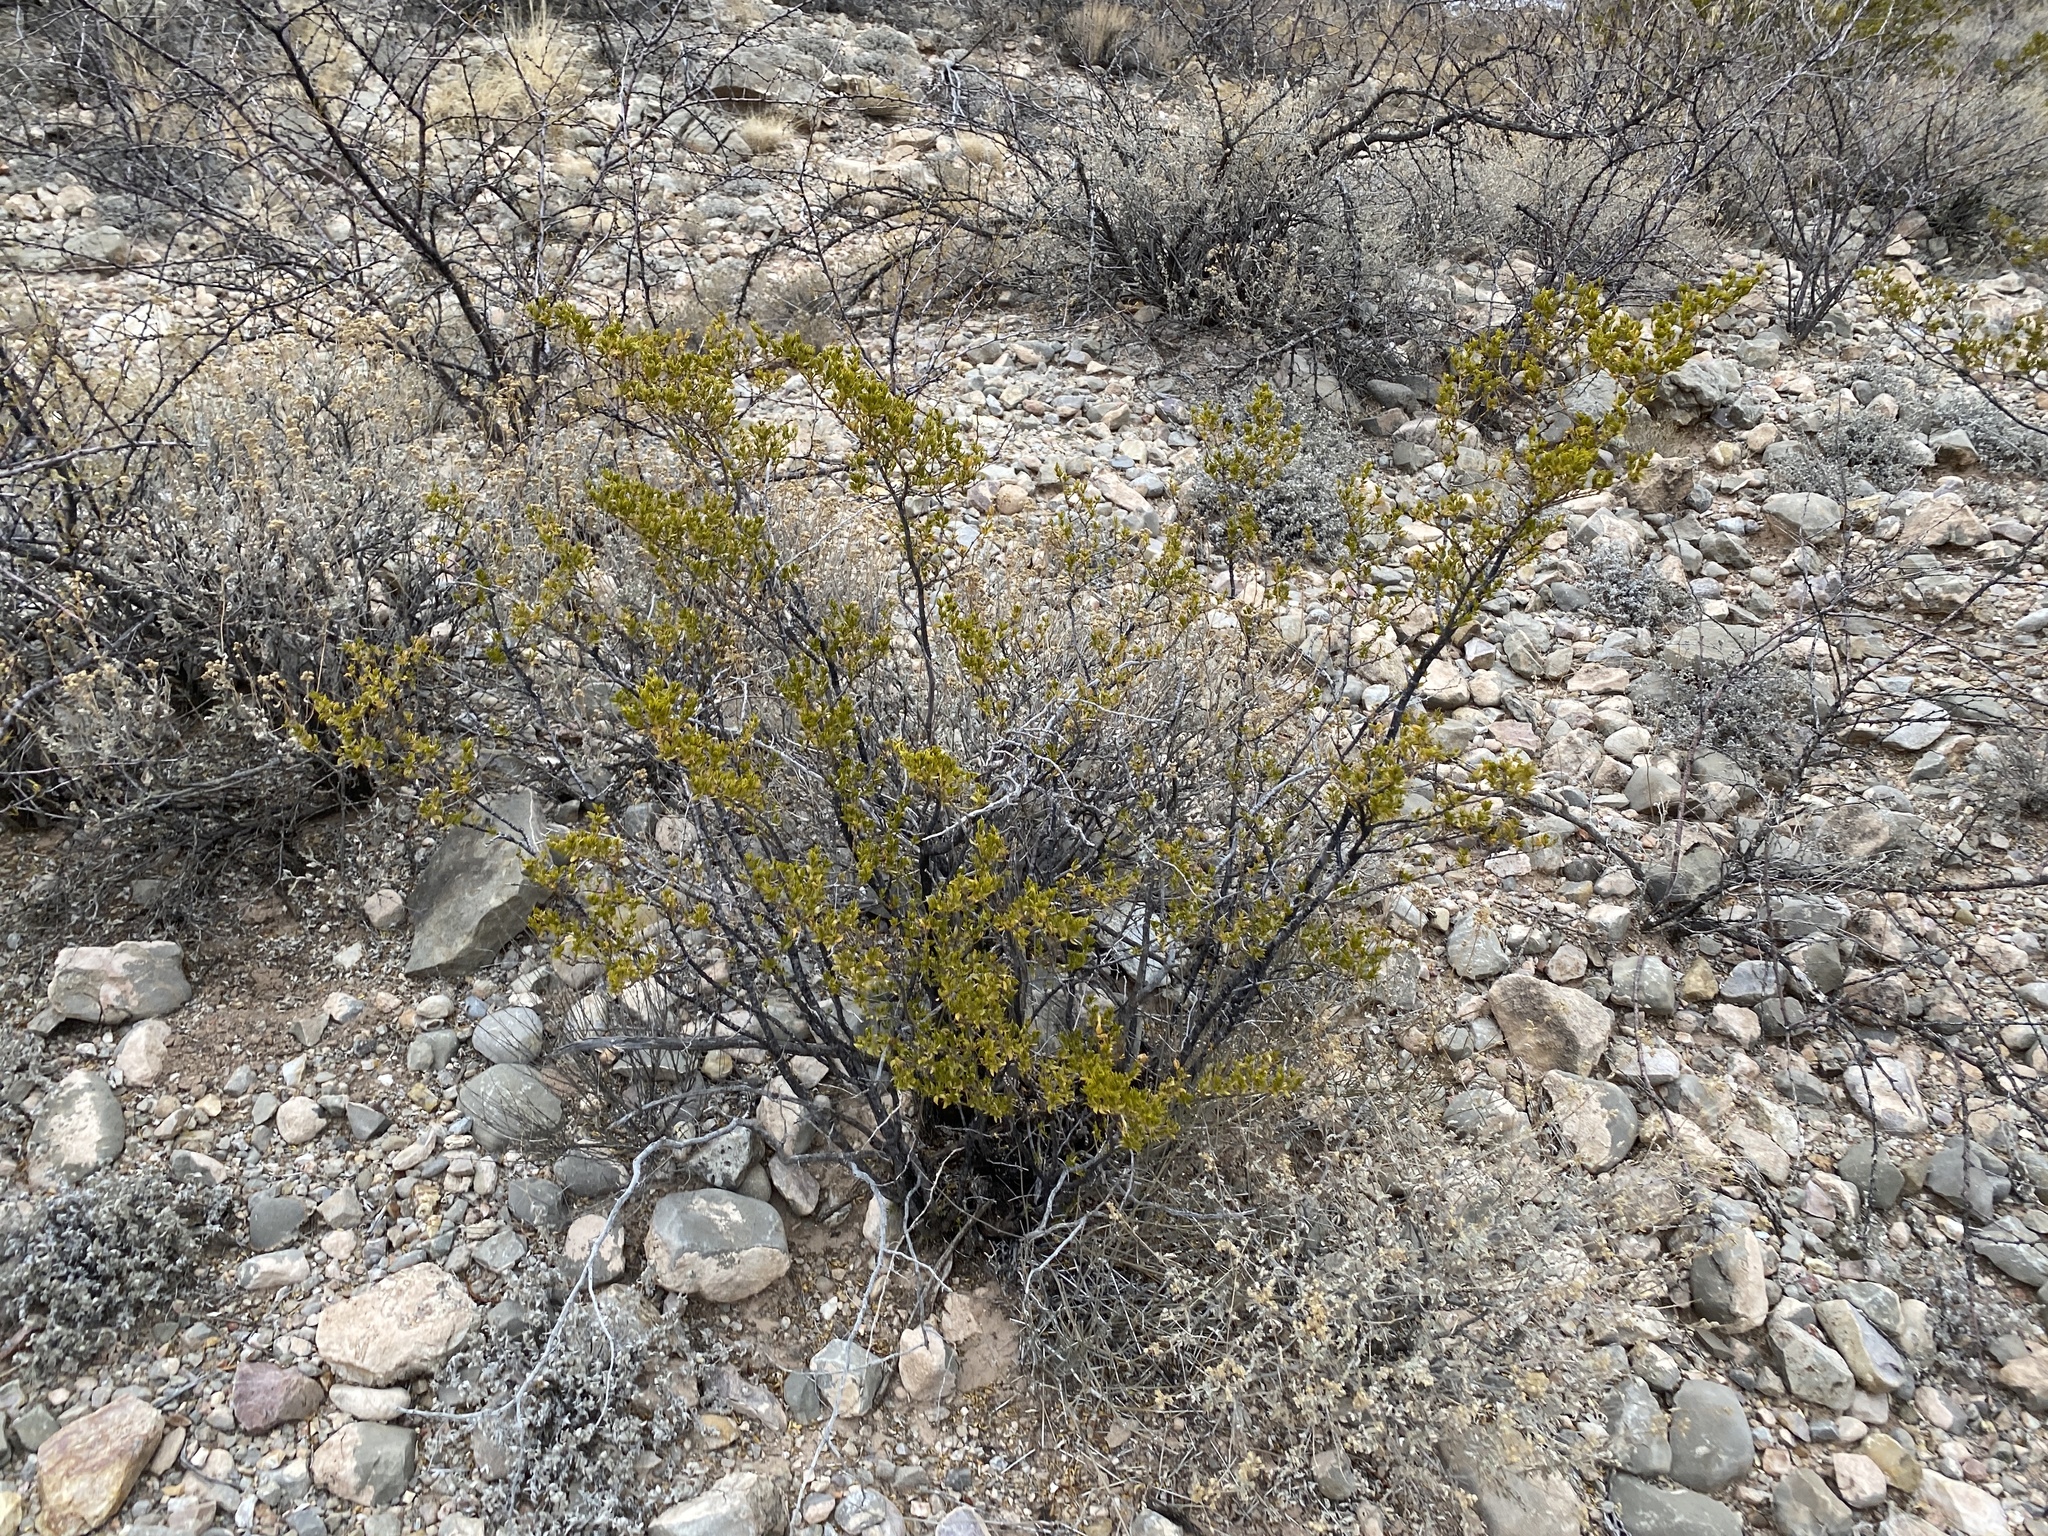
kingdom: Plantae
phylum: Tracheophyta
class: Magnoliopsida
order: Zygophyllales
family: Zygophyllaceae
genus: Larrea
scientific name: Larrea tridentata
